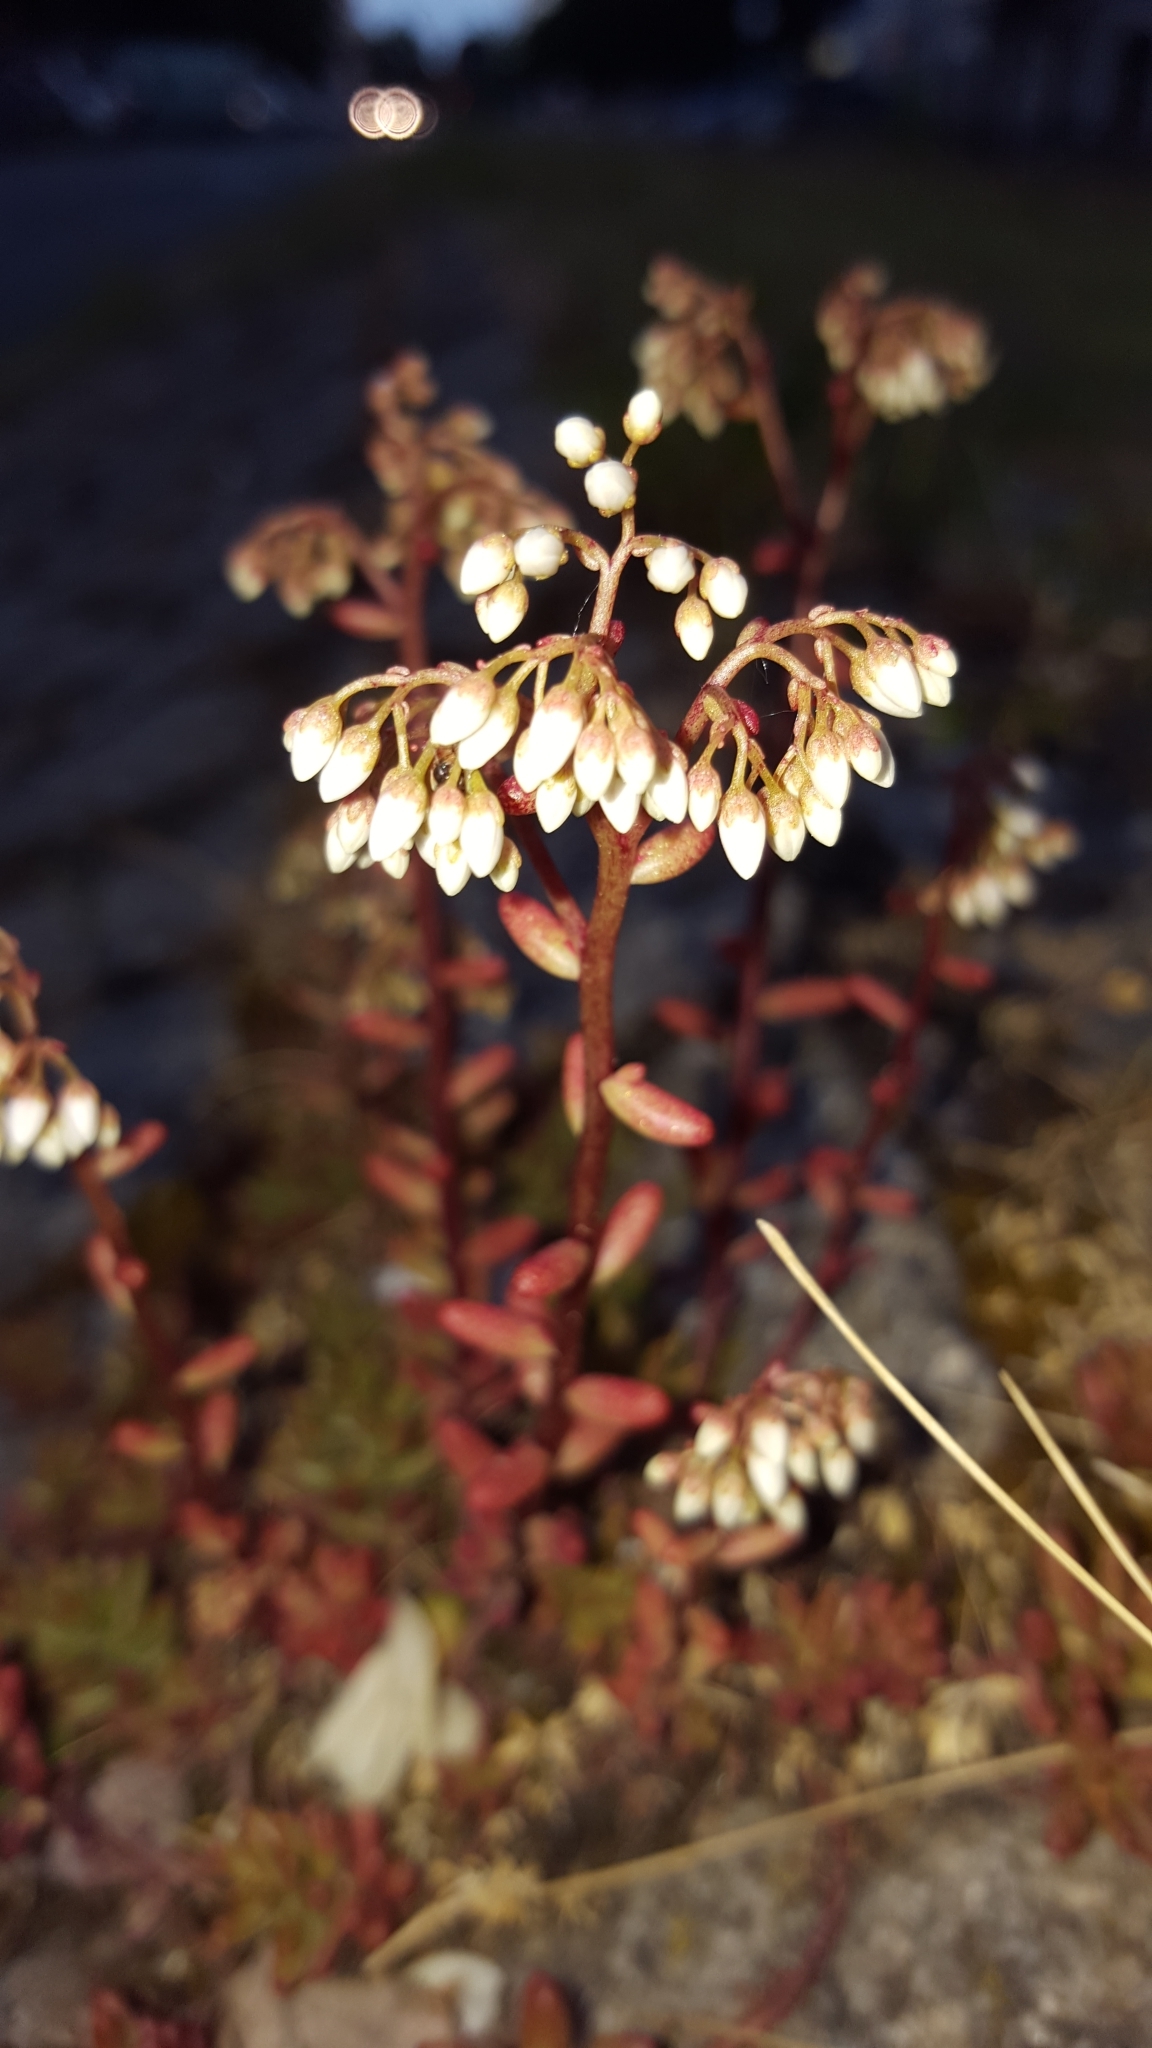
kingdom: Plantae
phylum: Tracheophyta
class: Magnoliopsida
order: Saxifragales
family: Crassulaceae
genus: Sedum
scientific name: Sedum album
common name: White stonecrop
